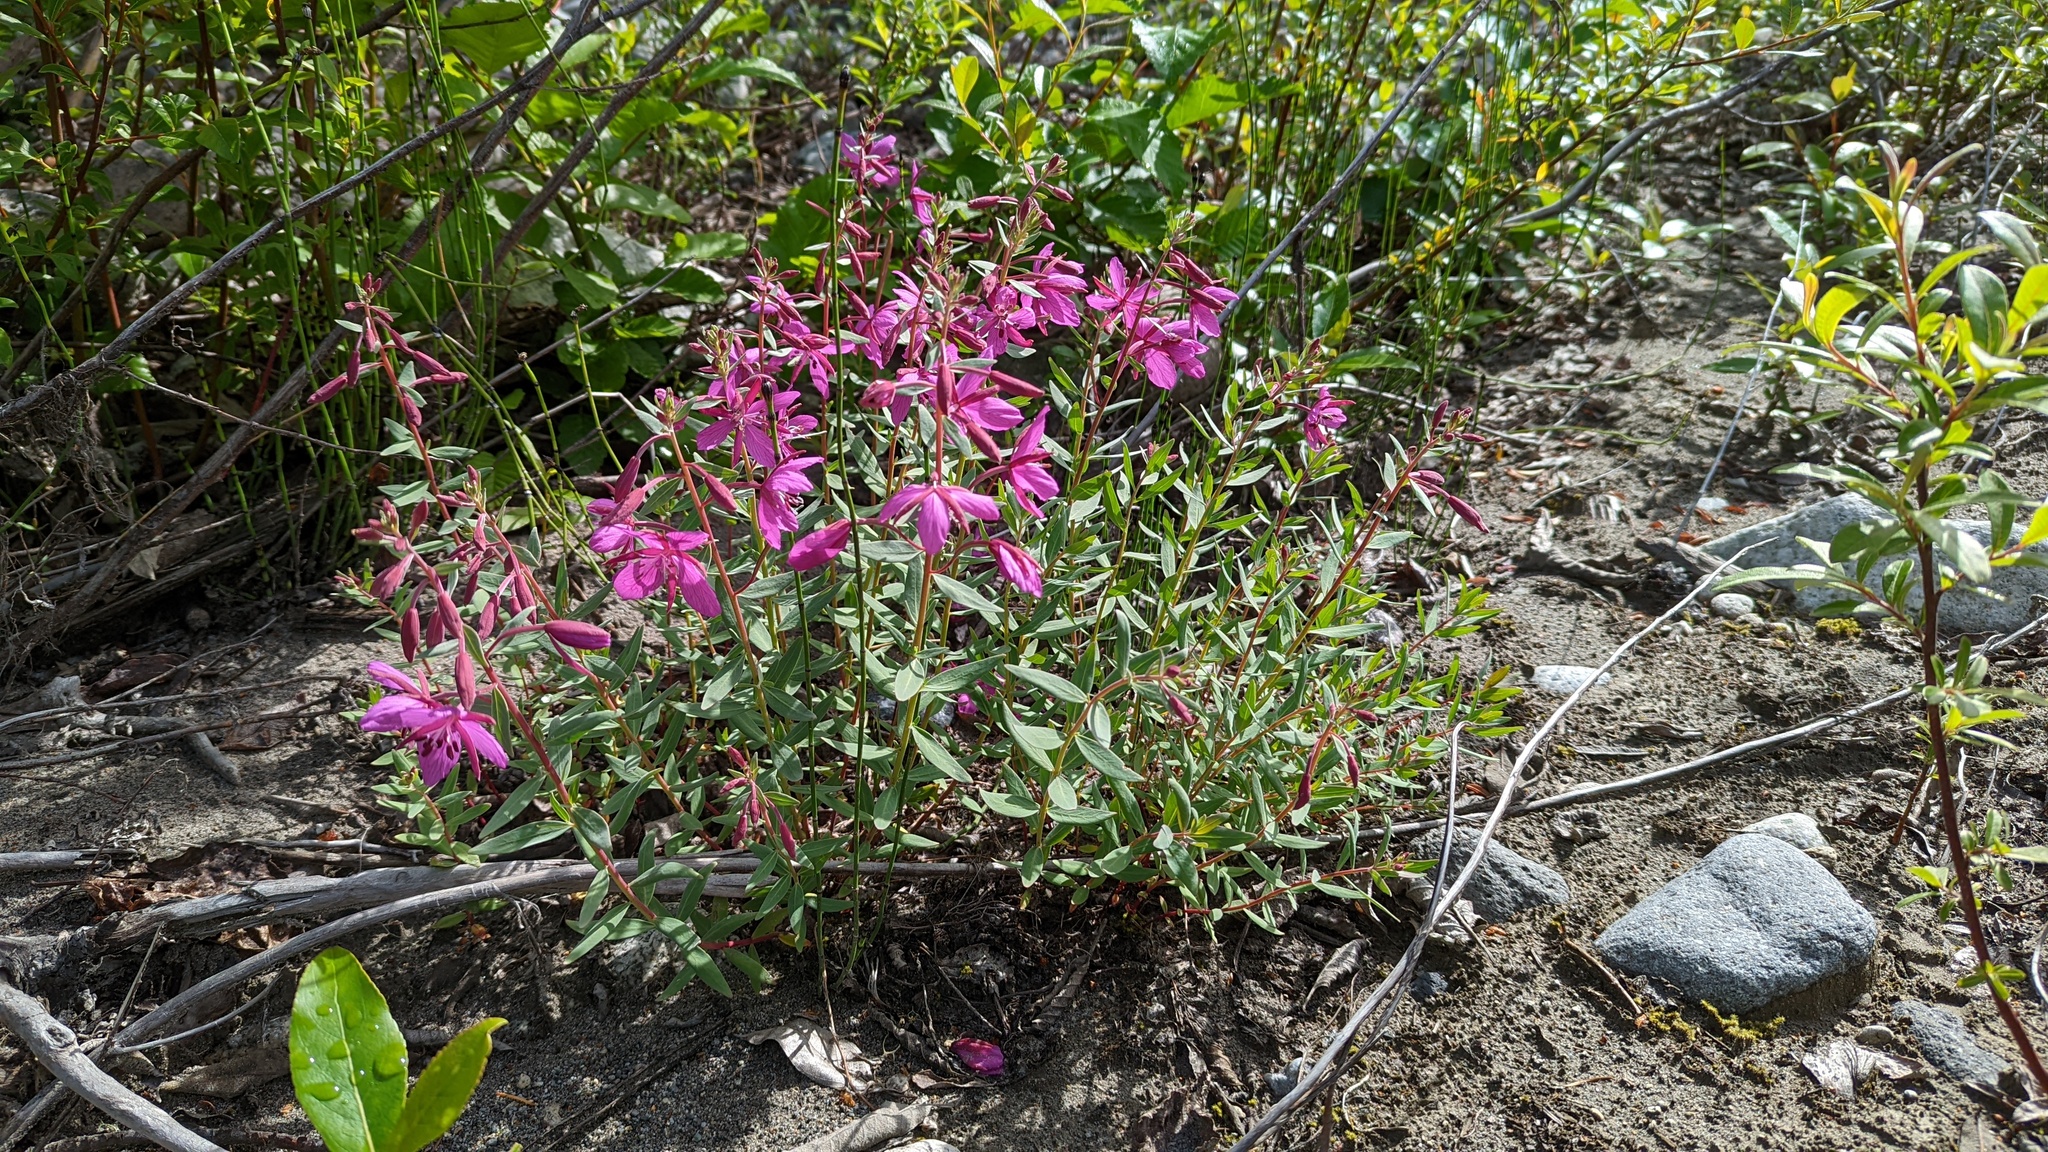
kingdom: Plantae
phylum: Tracheophyta
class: Magnoliopsida
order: Myrtales
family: Onagraceae
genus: Chamaenerion
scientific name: Chamaenerion latifolium
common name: Dwarf fireweed
